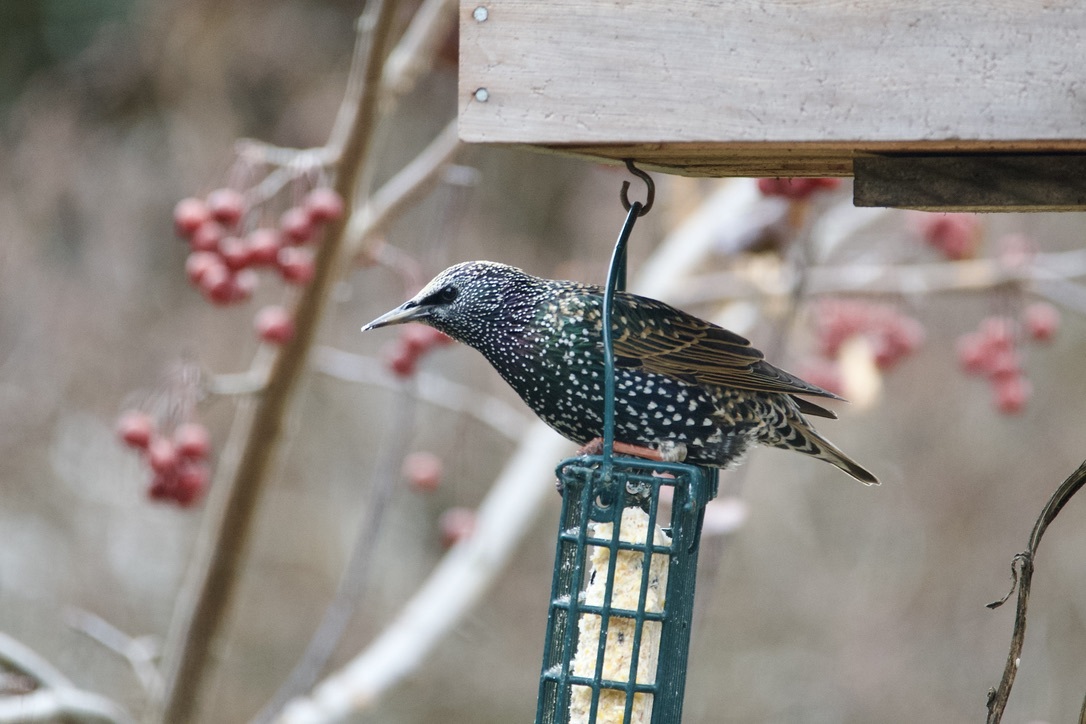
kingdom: Animalia
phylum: Chordata
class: Aves
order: Passeriformes
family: Sturnidae
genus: Sturnus
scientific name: Sturnus vulgaris
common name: Common starling
